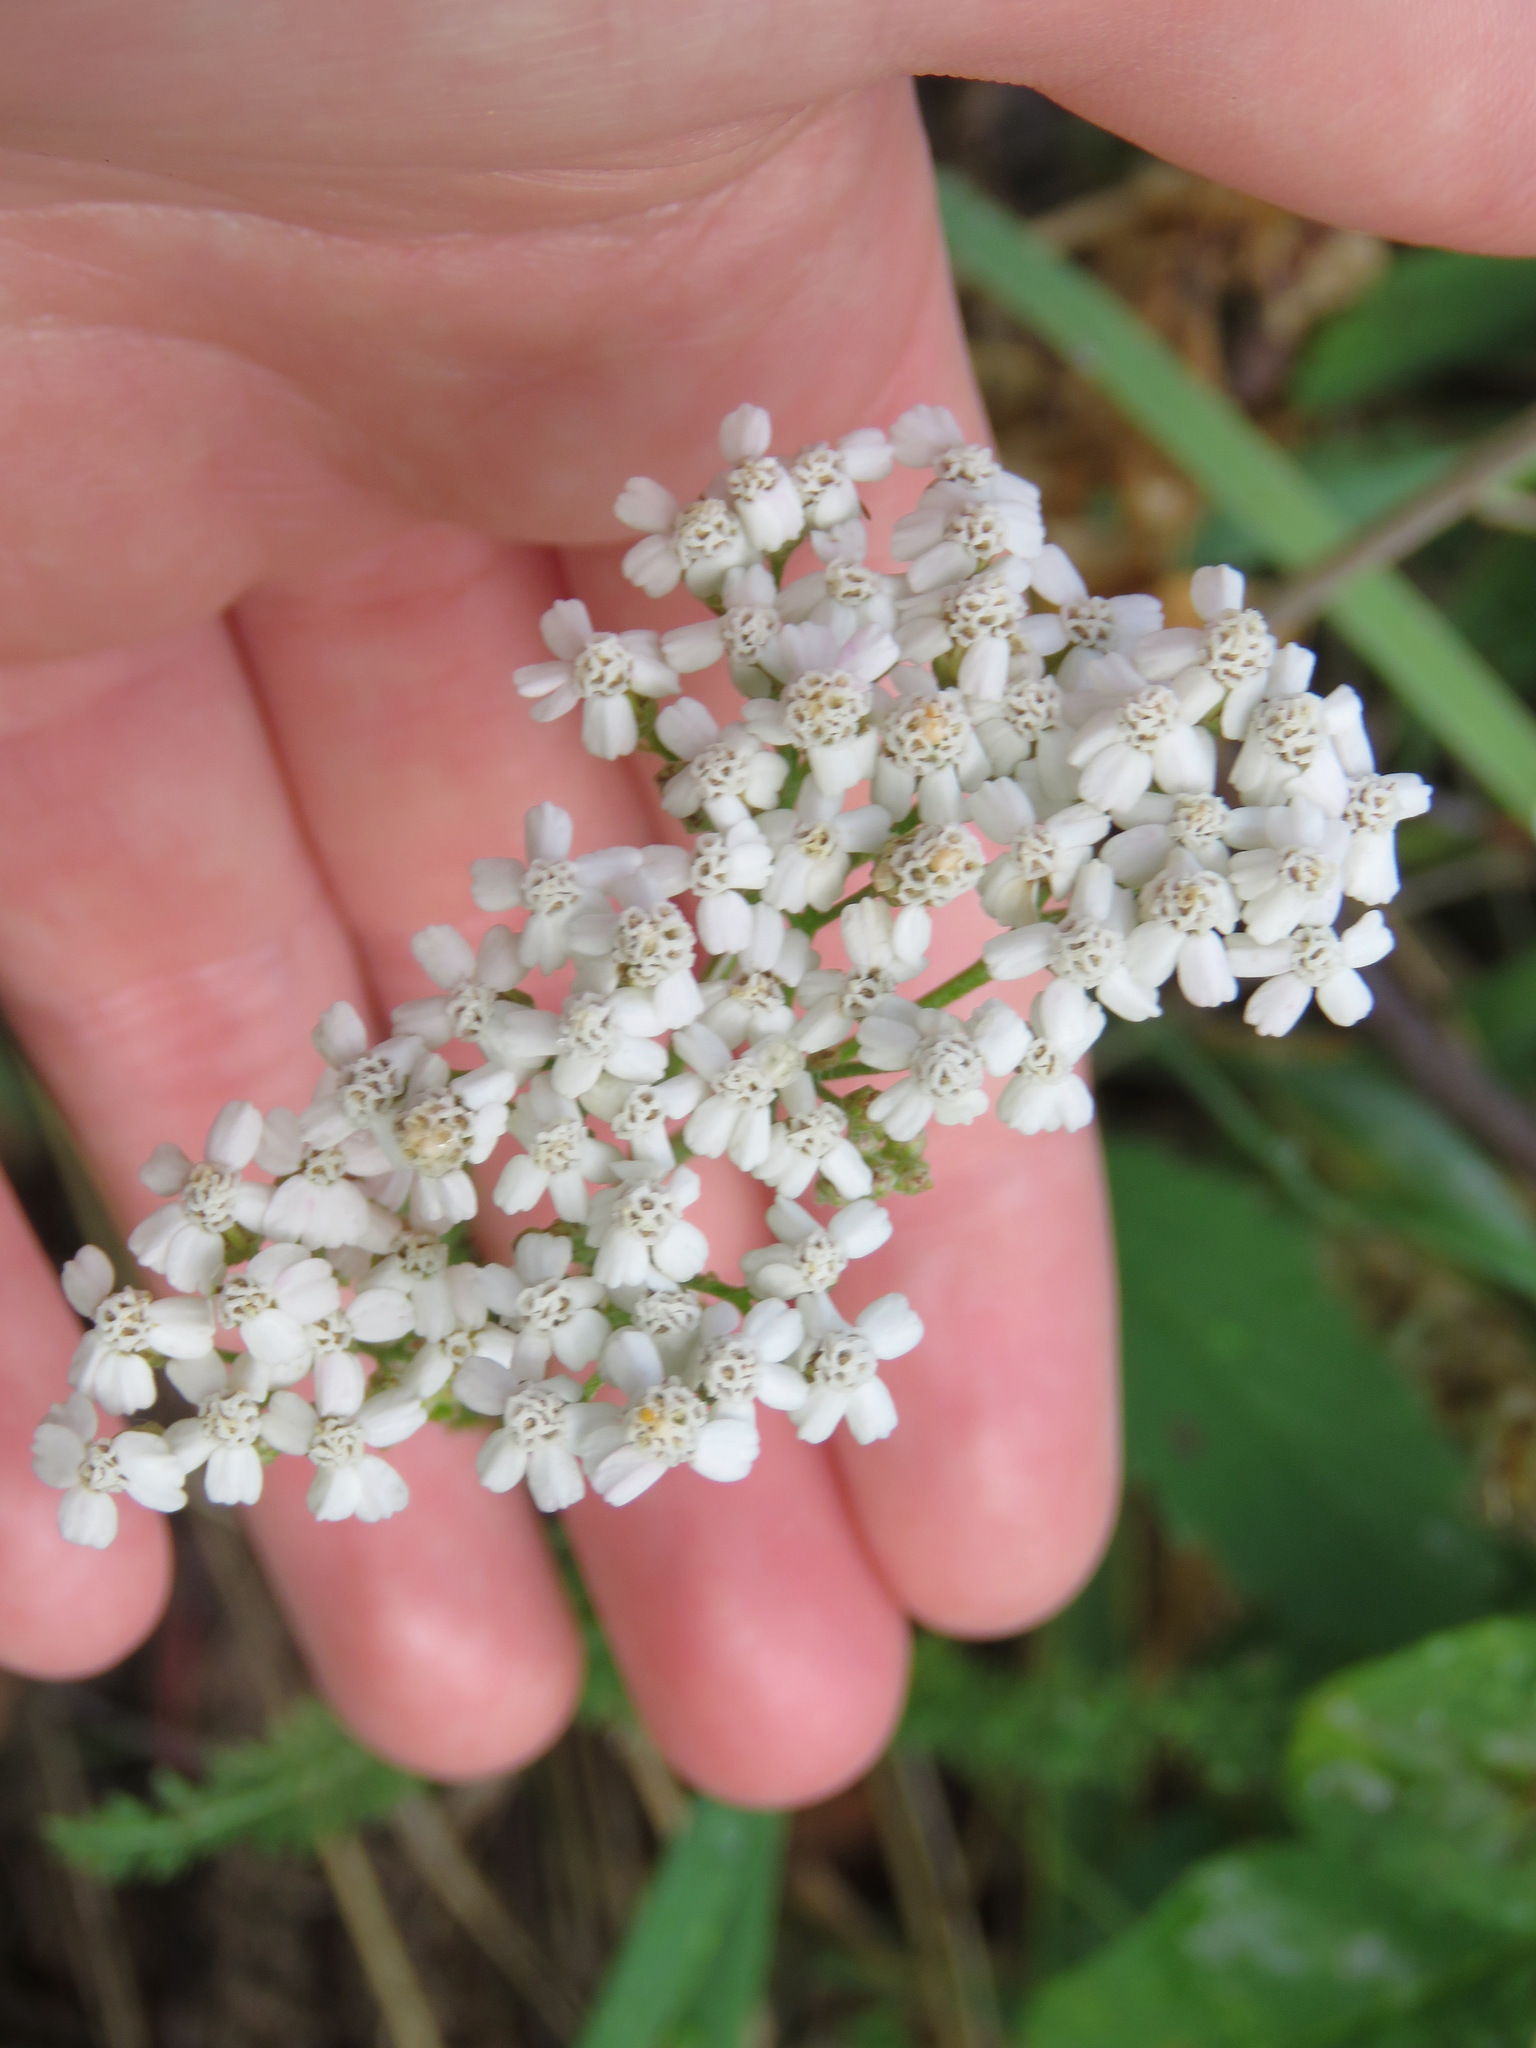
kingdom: Plantae
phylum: Tracheophyta
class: Magnoliopsida
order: Asterales
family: Asteraceae
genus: Achillea
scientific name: Achillea millefolium
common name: Yarrow
